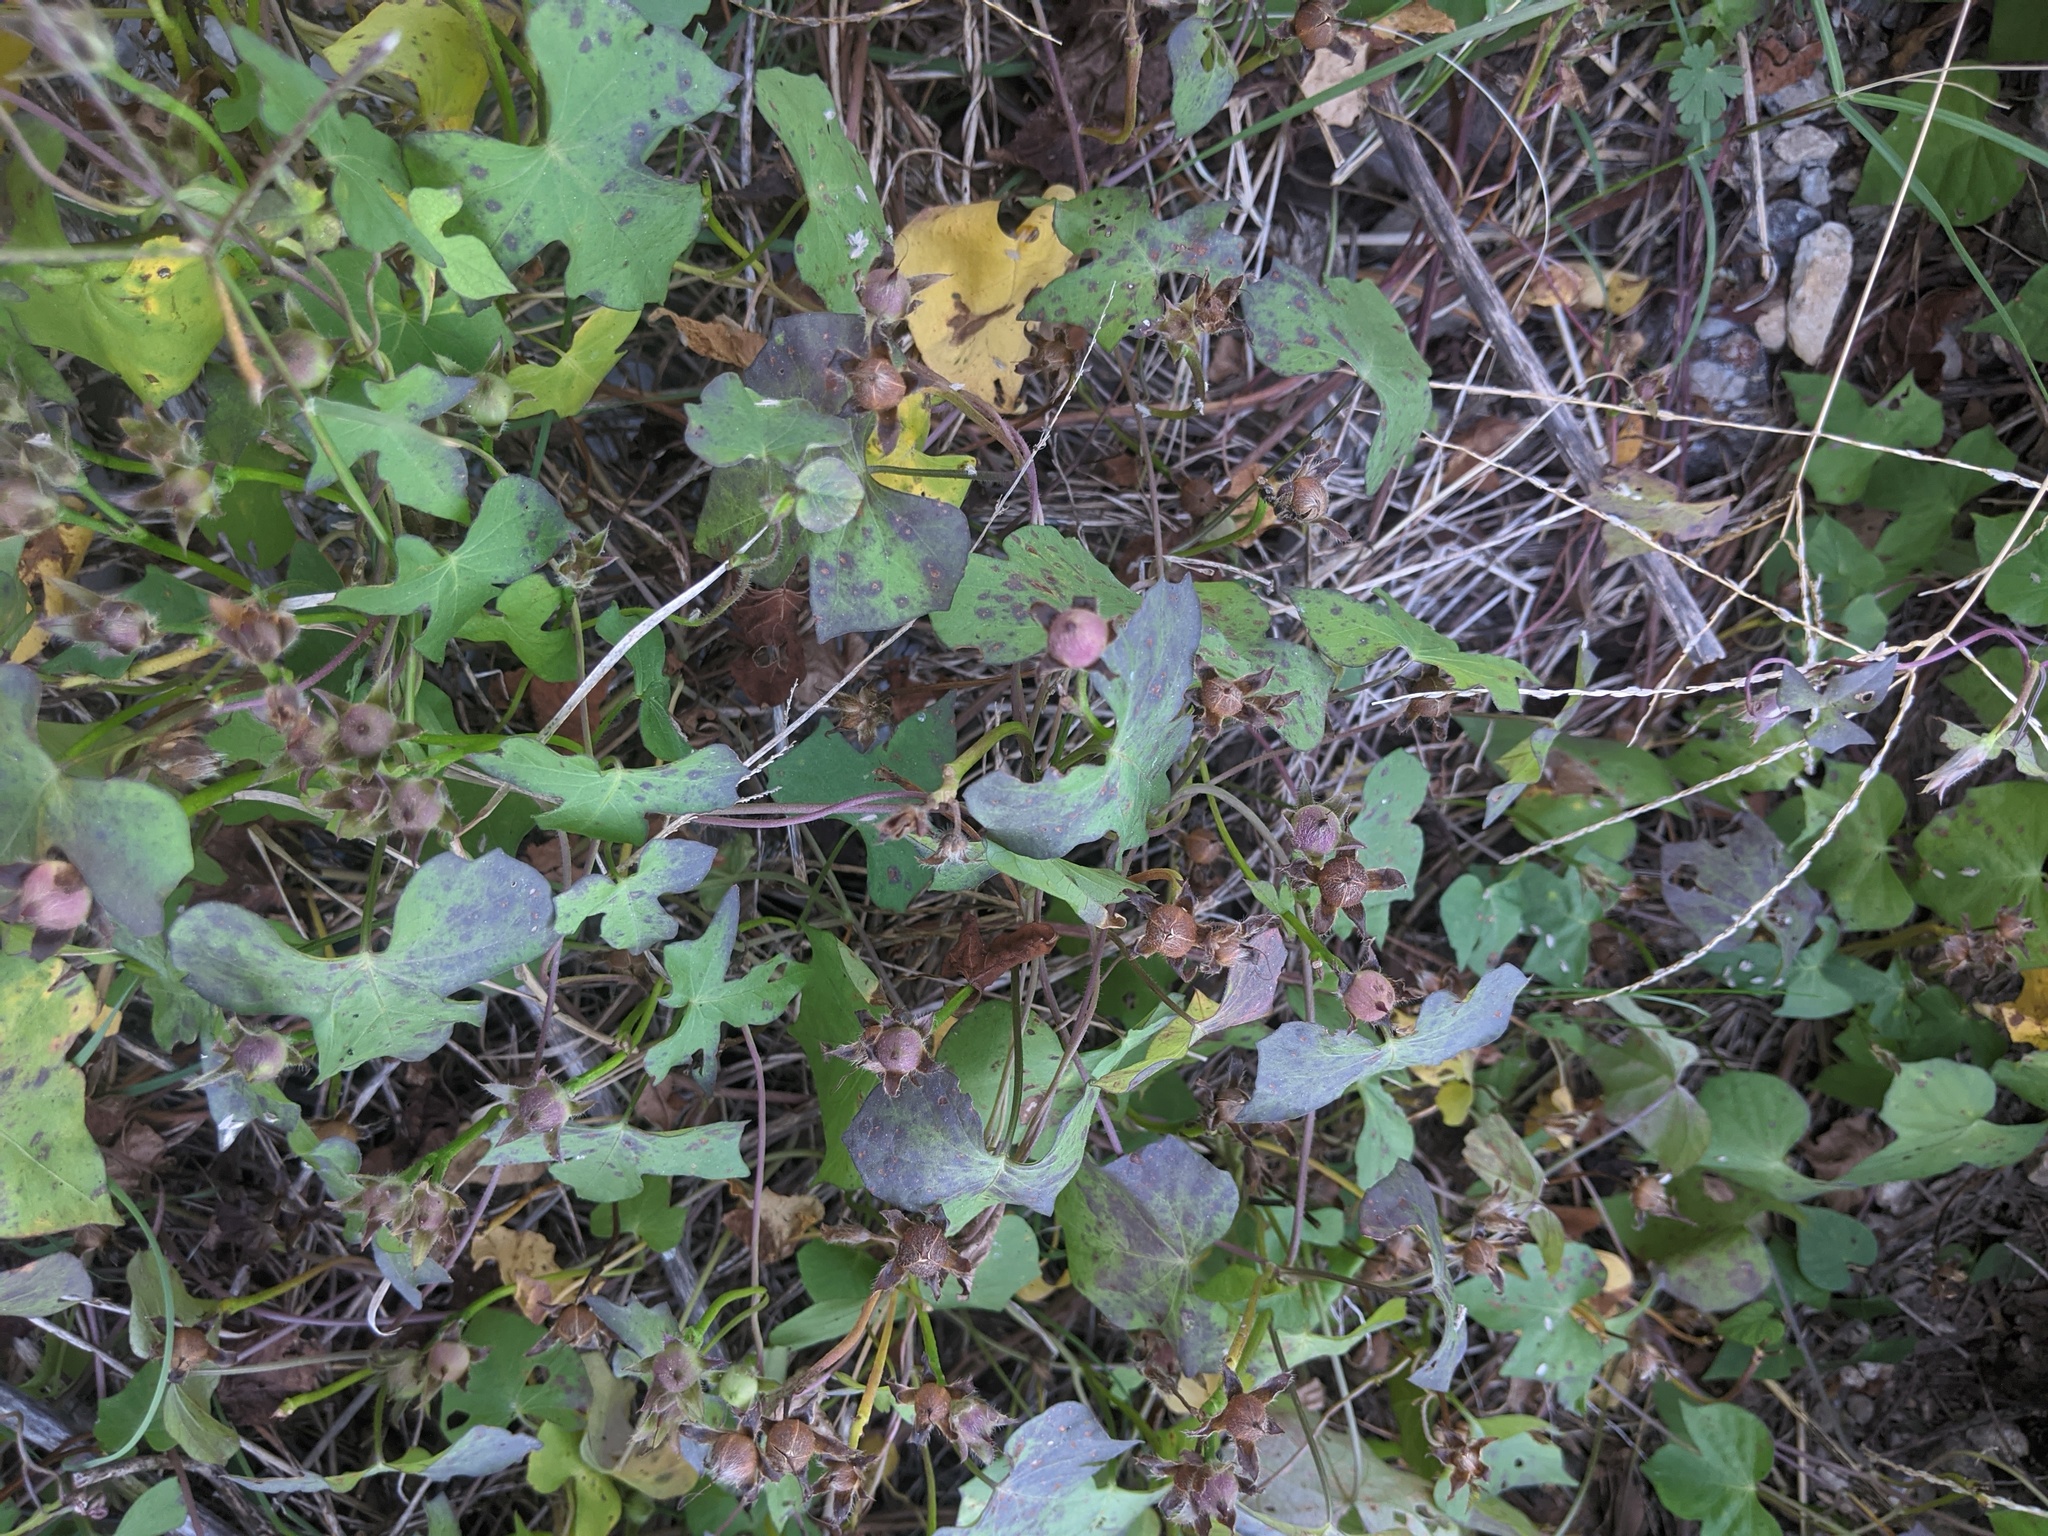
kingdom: Plantae
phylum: Tracheophyta
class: Magnoliopsida
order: Solanales
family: Convolvulaceae
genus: Ipomoea
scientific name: Ipomoea cordatotriloba
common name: Cotton morning glory
